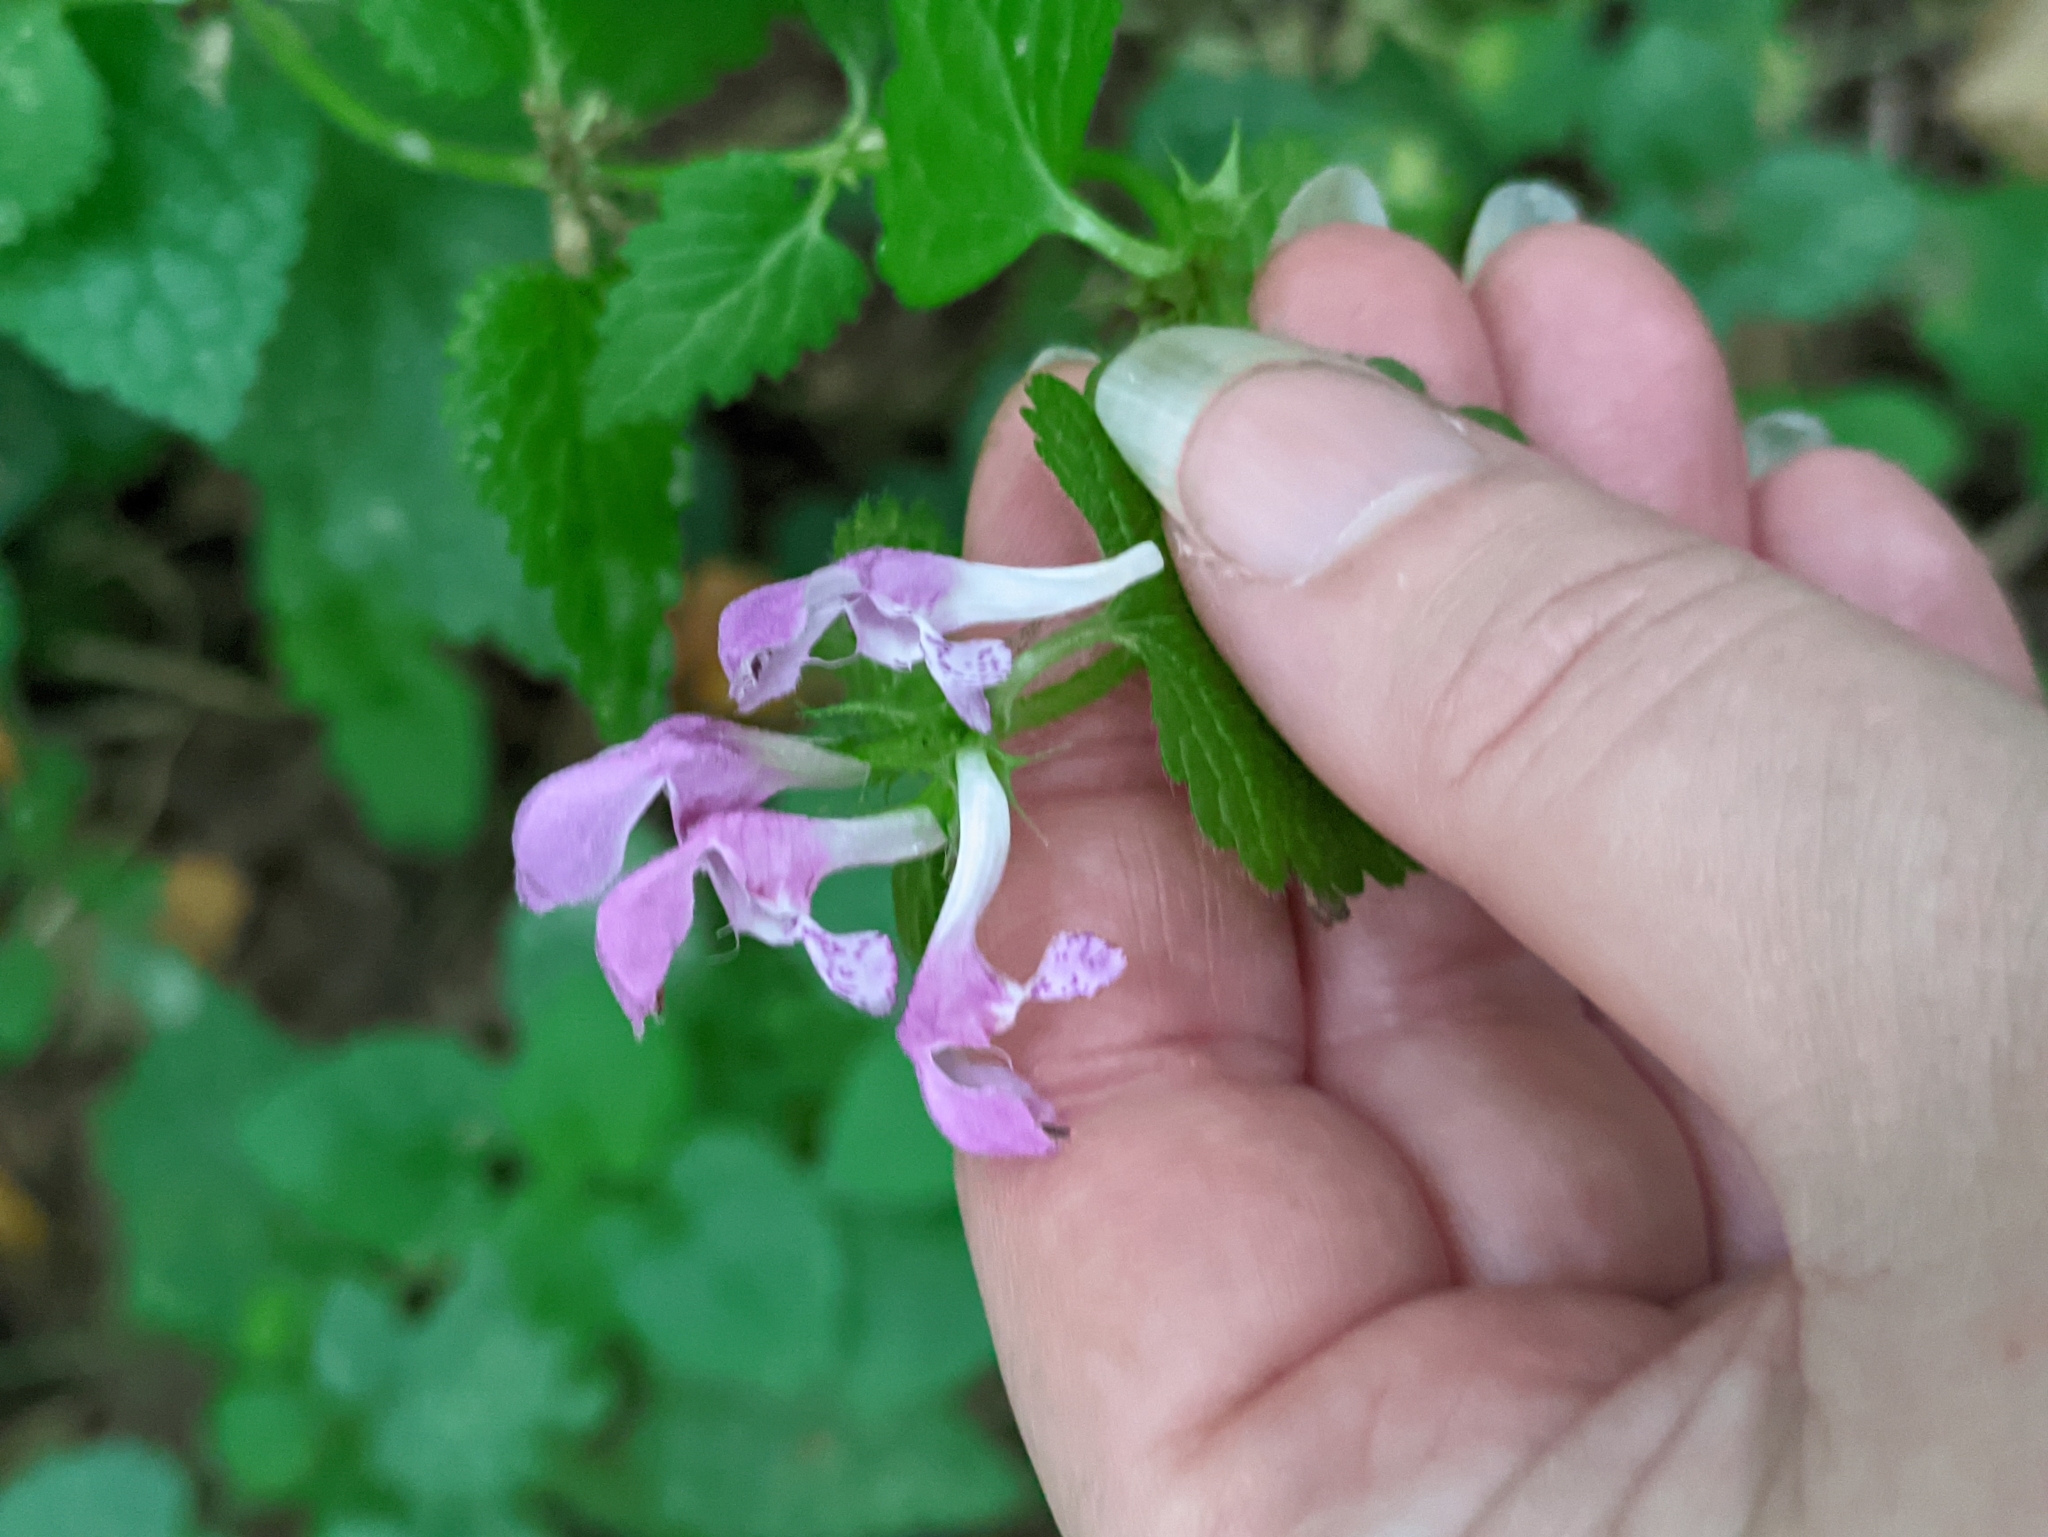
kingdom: Plantae
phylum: Tracheophyta
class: Magnoliopsida
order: Lamiales
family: Lamiaceae
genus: Lamium
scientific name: Lamium maculatum
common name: Spotted dead-nettle
